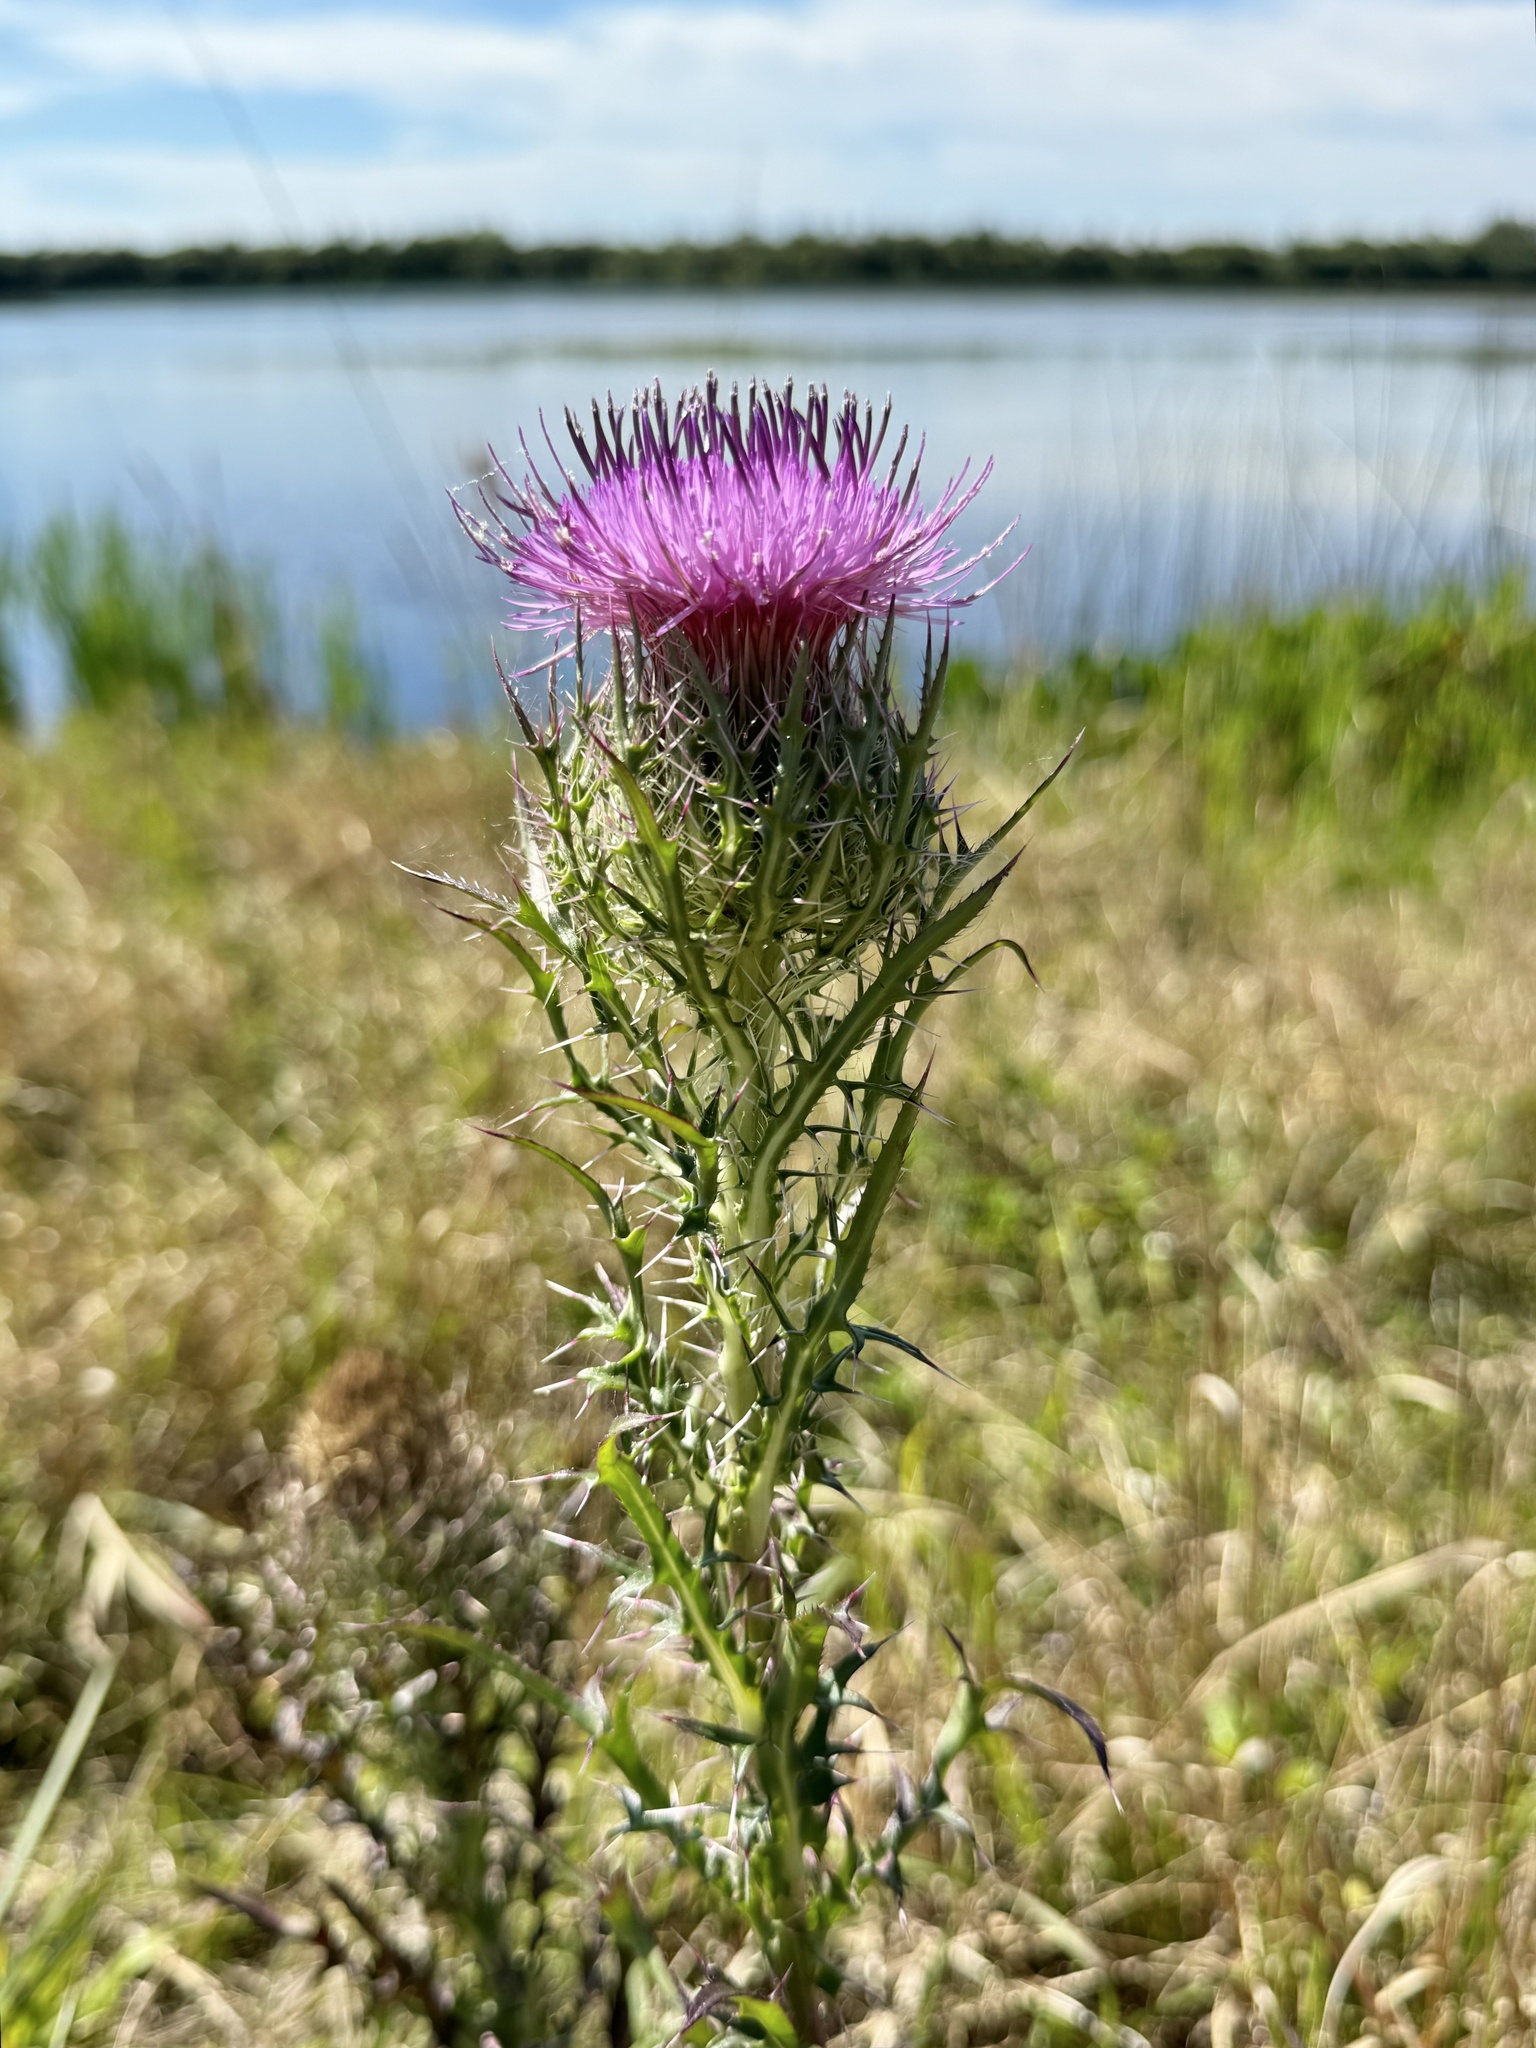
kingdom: Plantae
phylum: Tracheophyta
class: Magnoliopsida
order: Asterales
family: Asteraceae
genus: Cirsium
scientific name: Cirsium horridulum
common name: Bristly thistle
